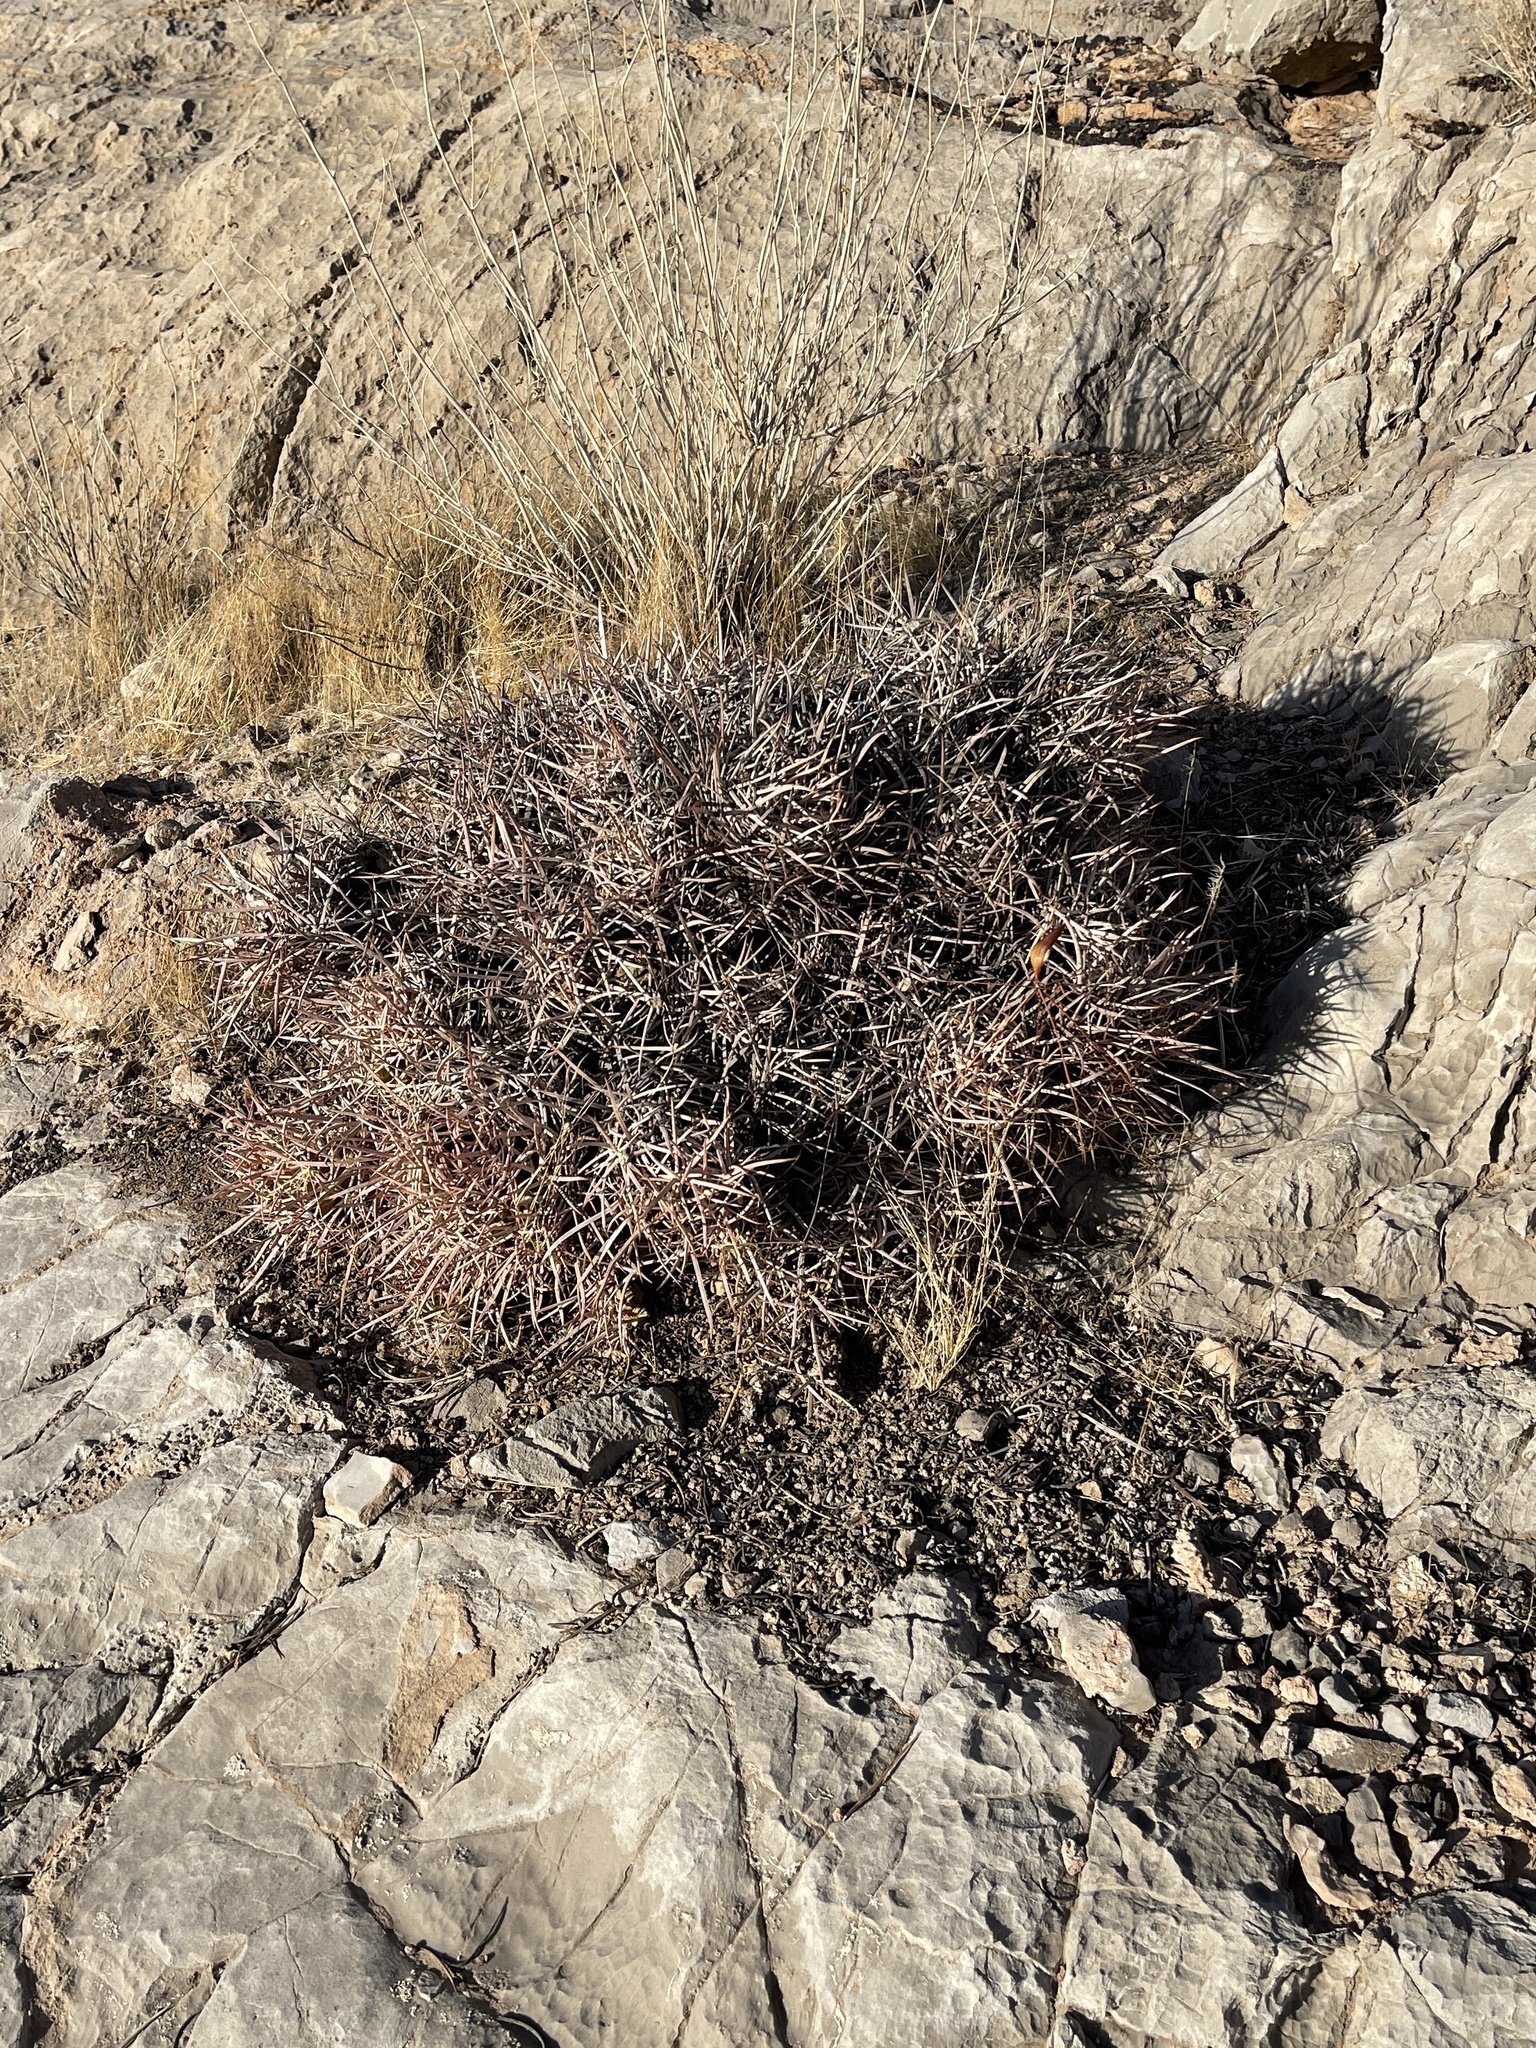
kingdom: Plantae
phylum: Tracheophyta
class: Magnoliopsida
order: Caryophyllales
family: Cactaceae
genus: Echinocactus
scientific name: Echinocactus polycephalus
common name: Cottontop cactus
